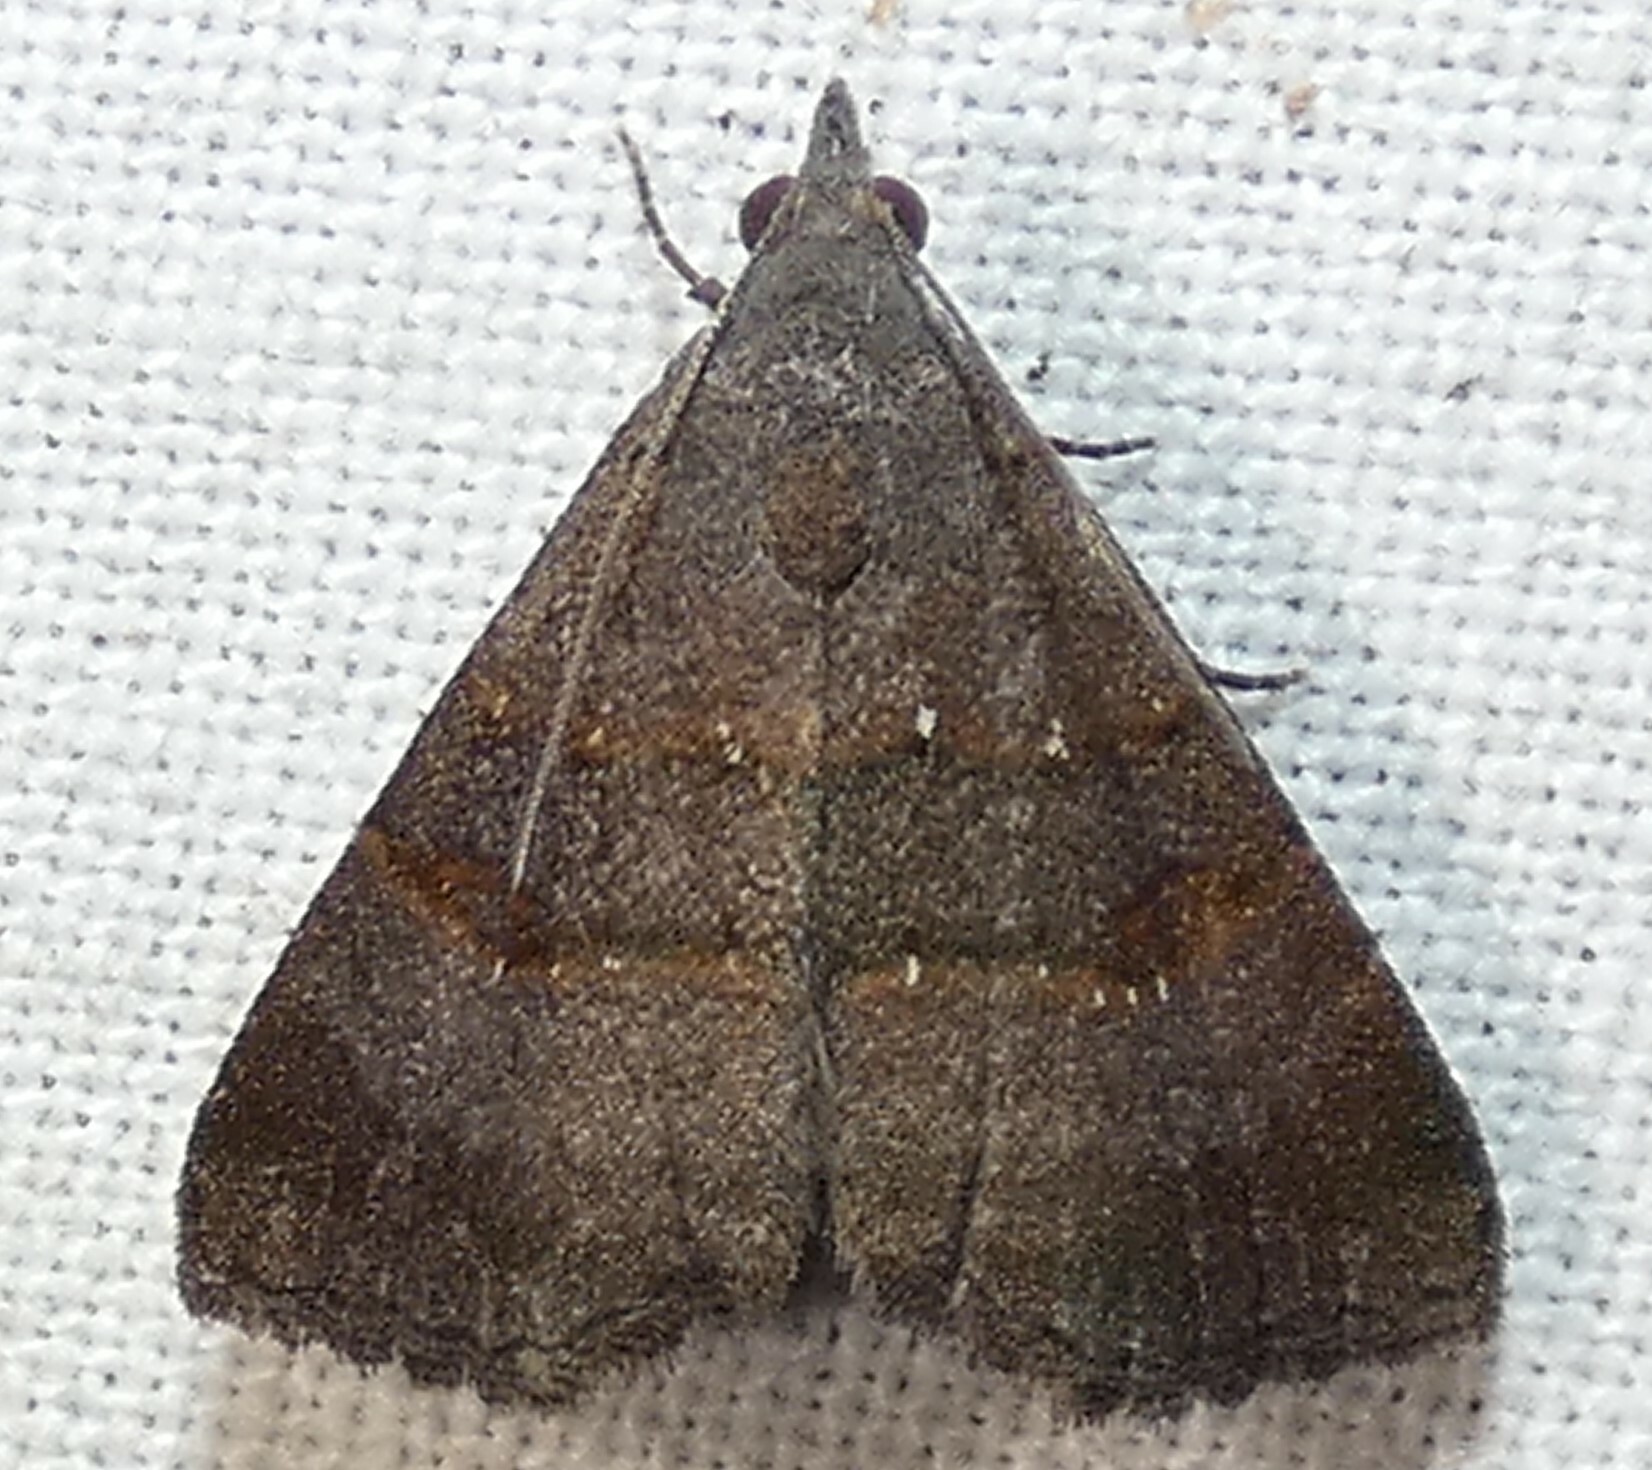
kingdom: Animalia
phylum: Arthropoda
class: Insecta
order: Lepidoptera
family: Noctuidae
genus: Hormoschista
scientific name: Hormoschista latipalpis
